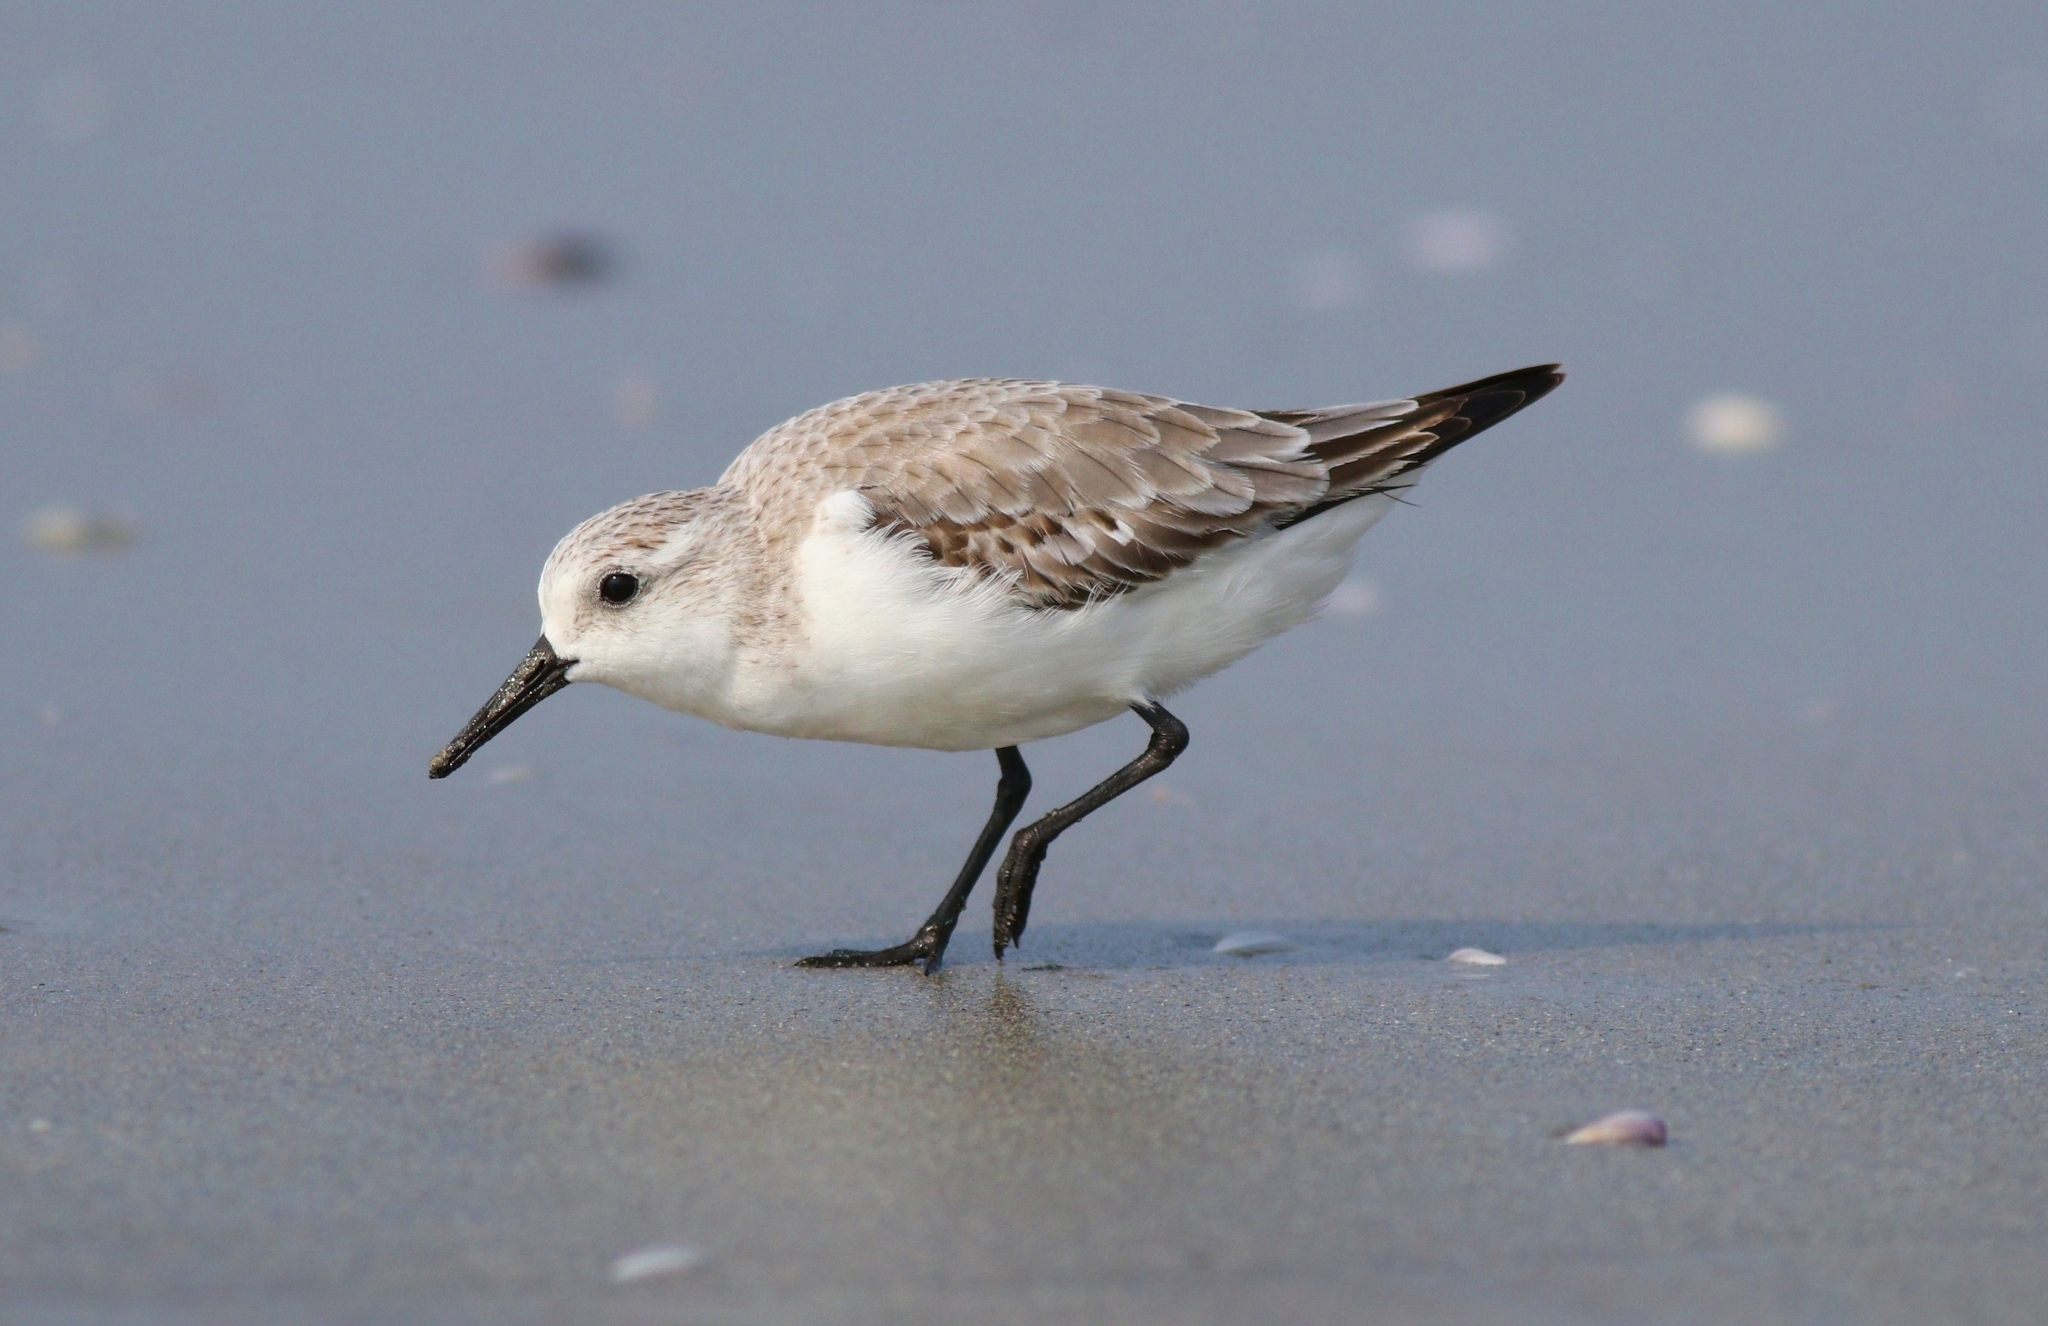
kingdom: Animalia
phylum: Chordata
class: Aves
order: Charadriiformes
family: Scolopacidae
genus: Calidris
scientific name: Calidris alba
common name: Sanderling
